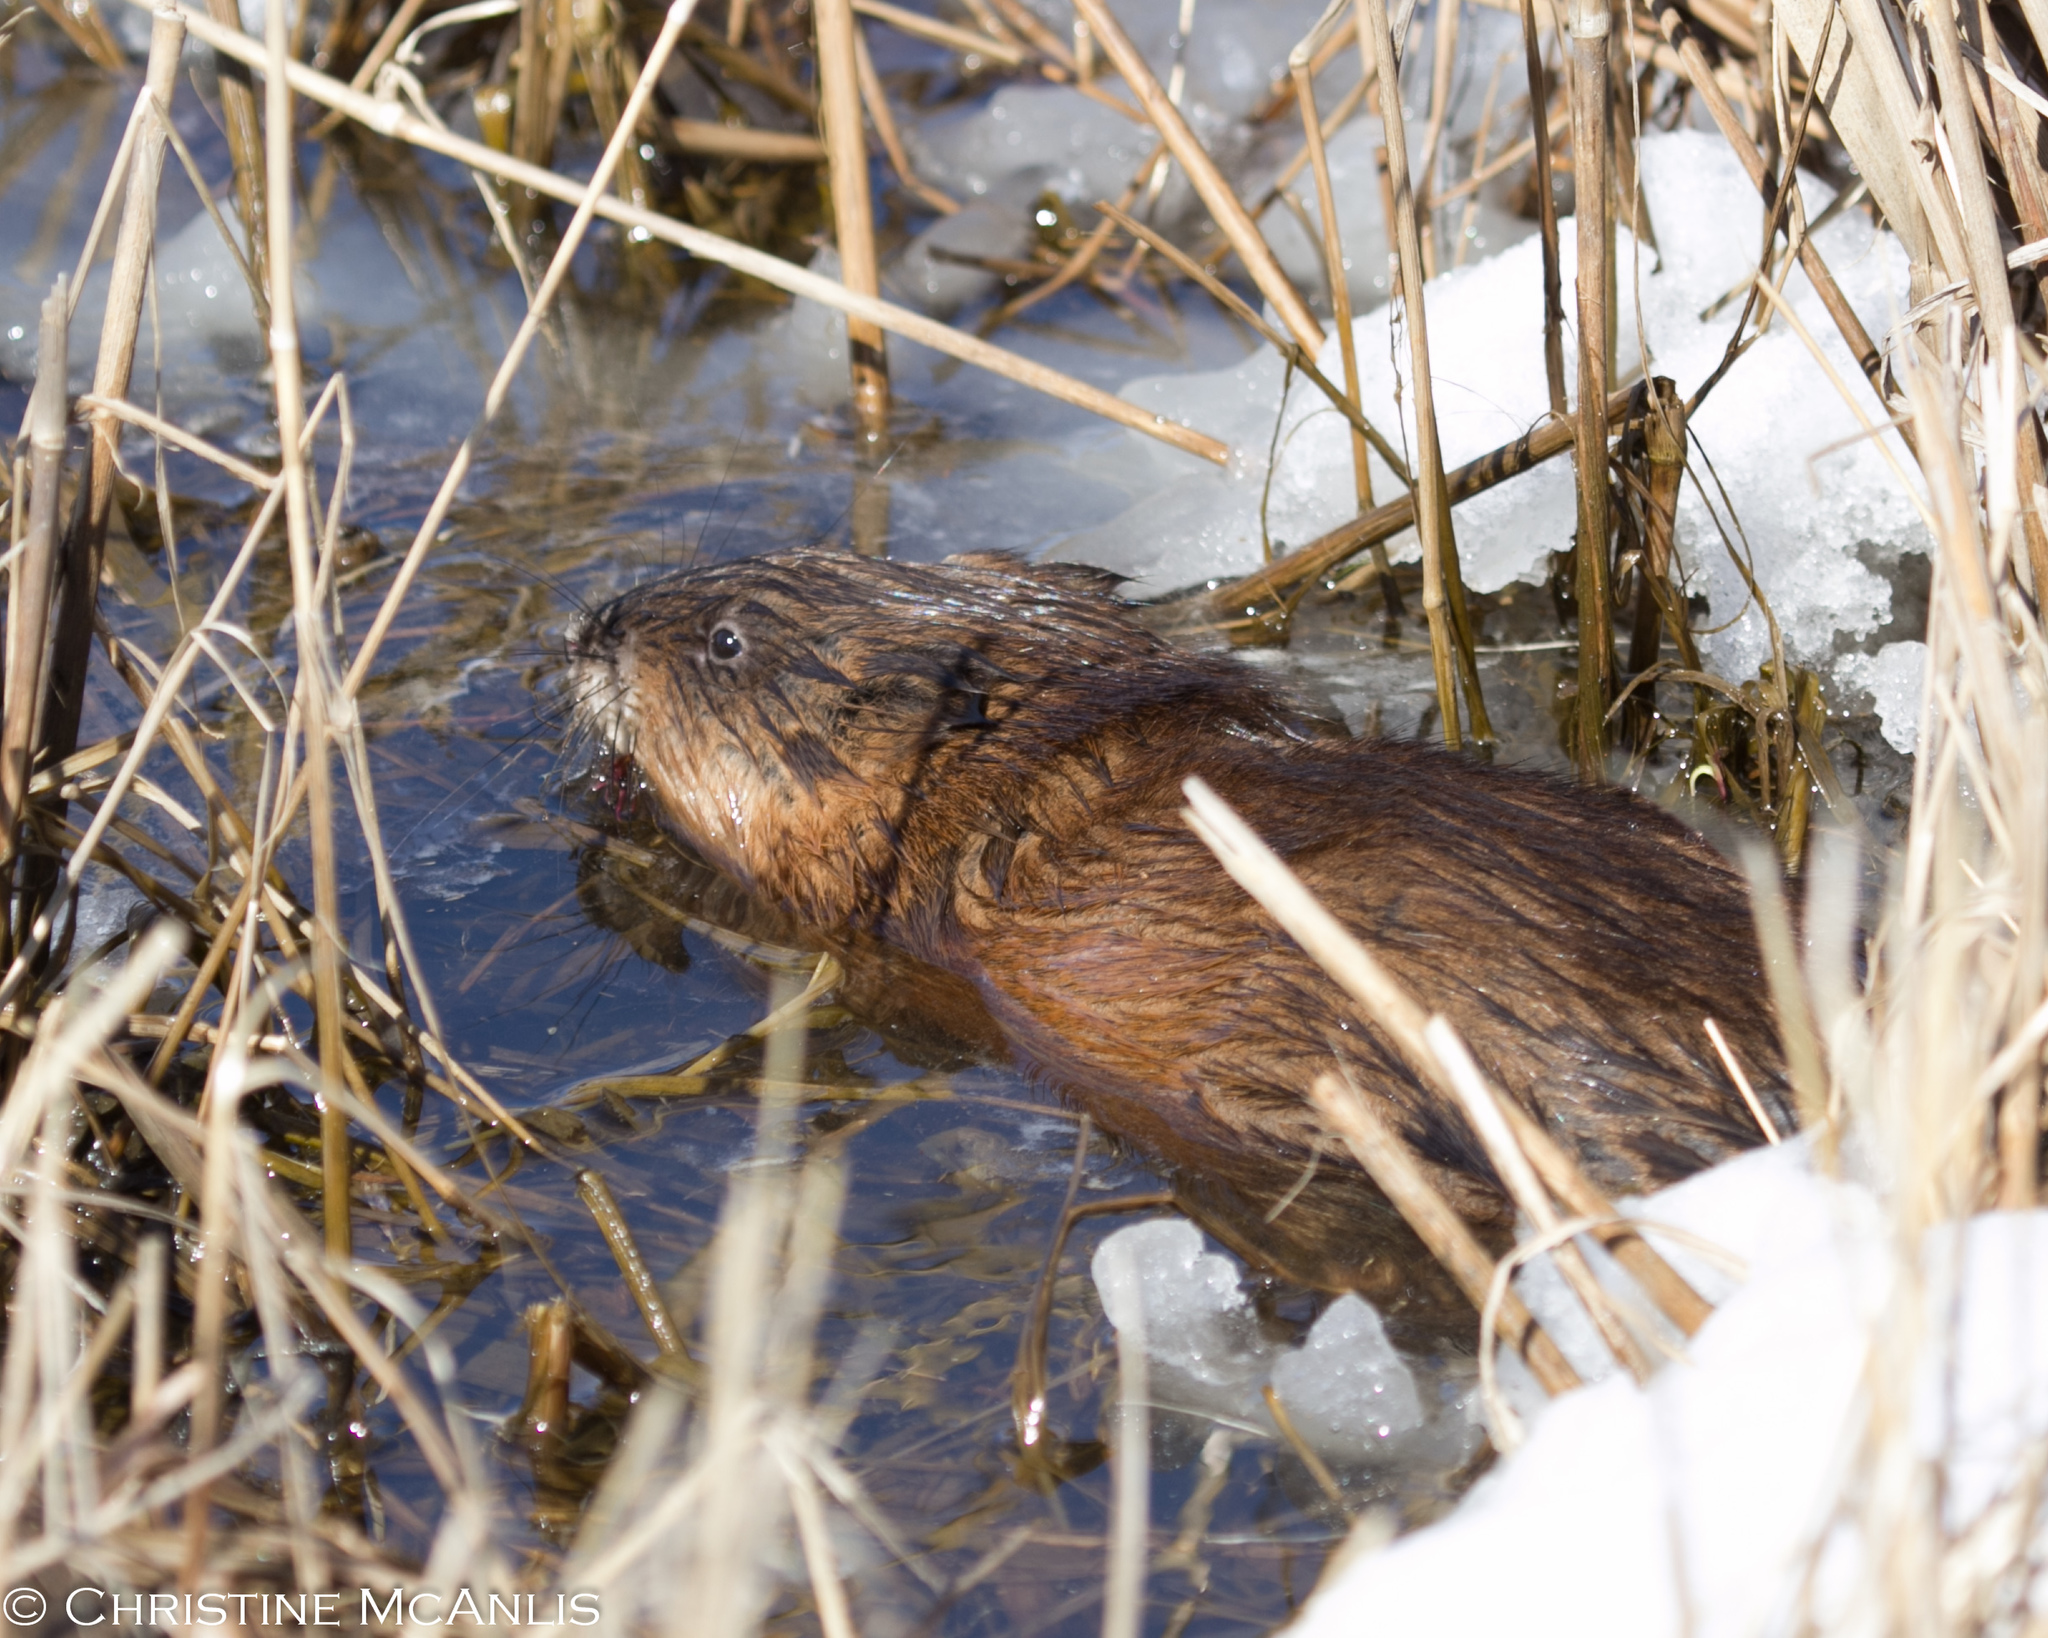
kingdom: Animalia
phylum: Chordata
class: Mammalia
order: Rodentia
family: Cricetidae
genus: Ondatra
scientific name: Ondatra zibethicus
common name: Muskrat
